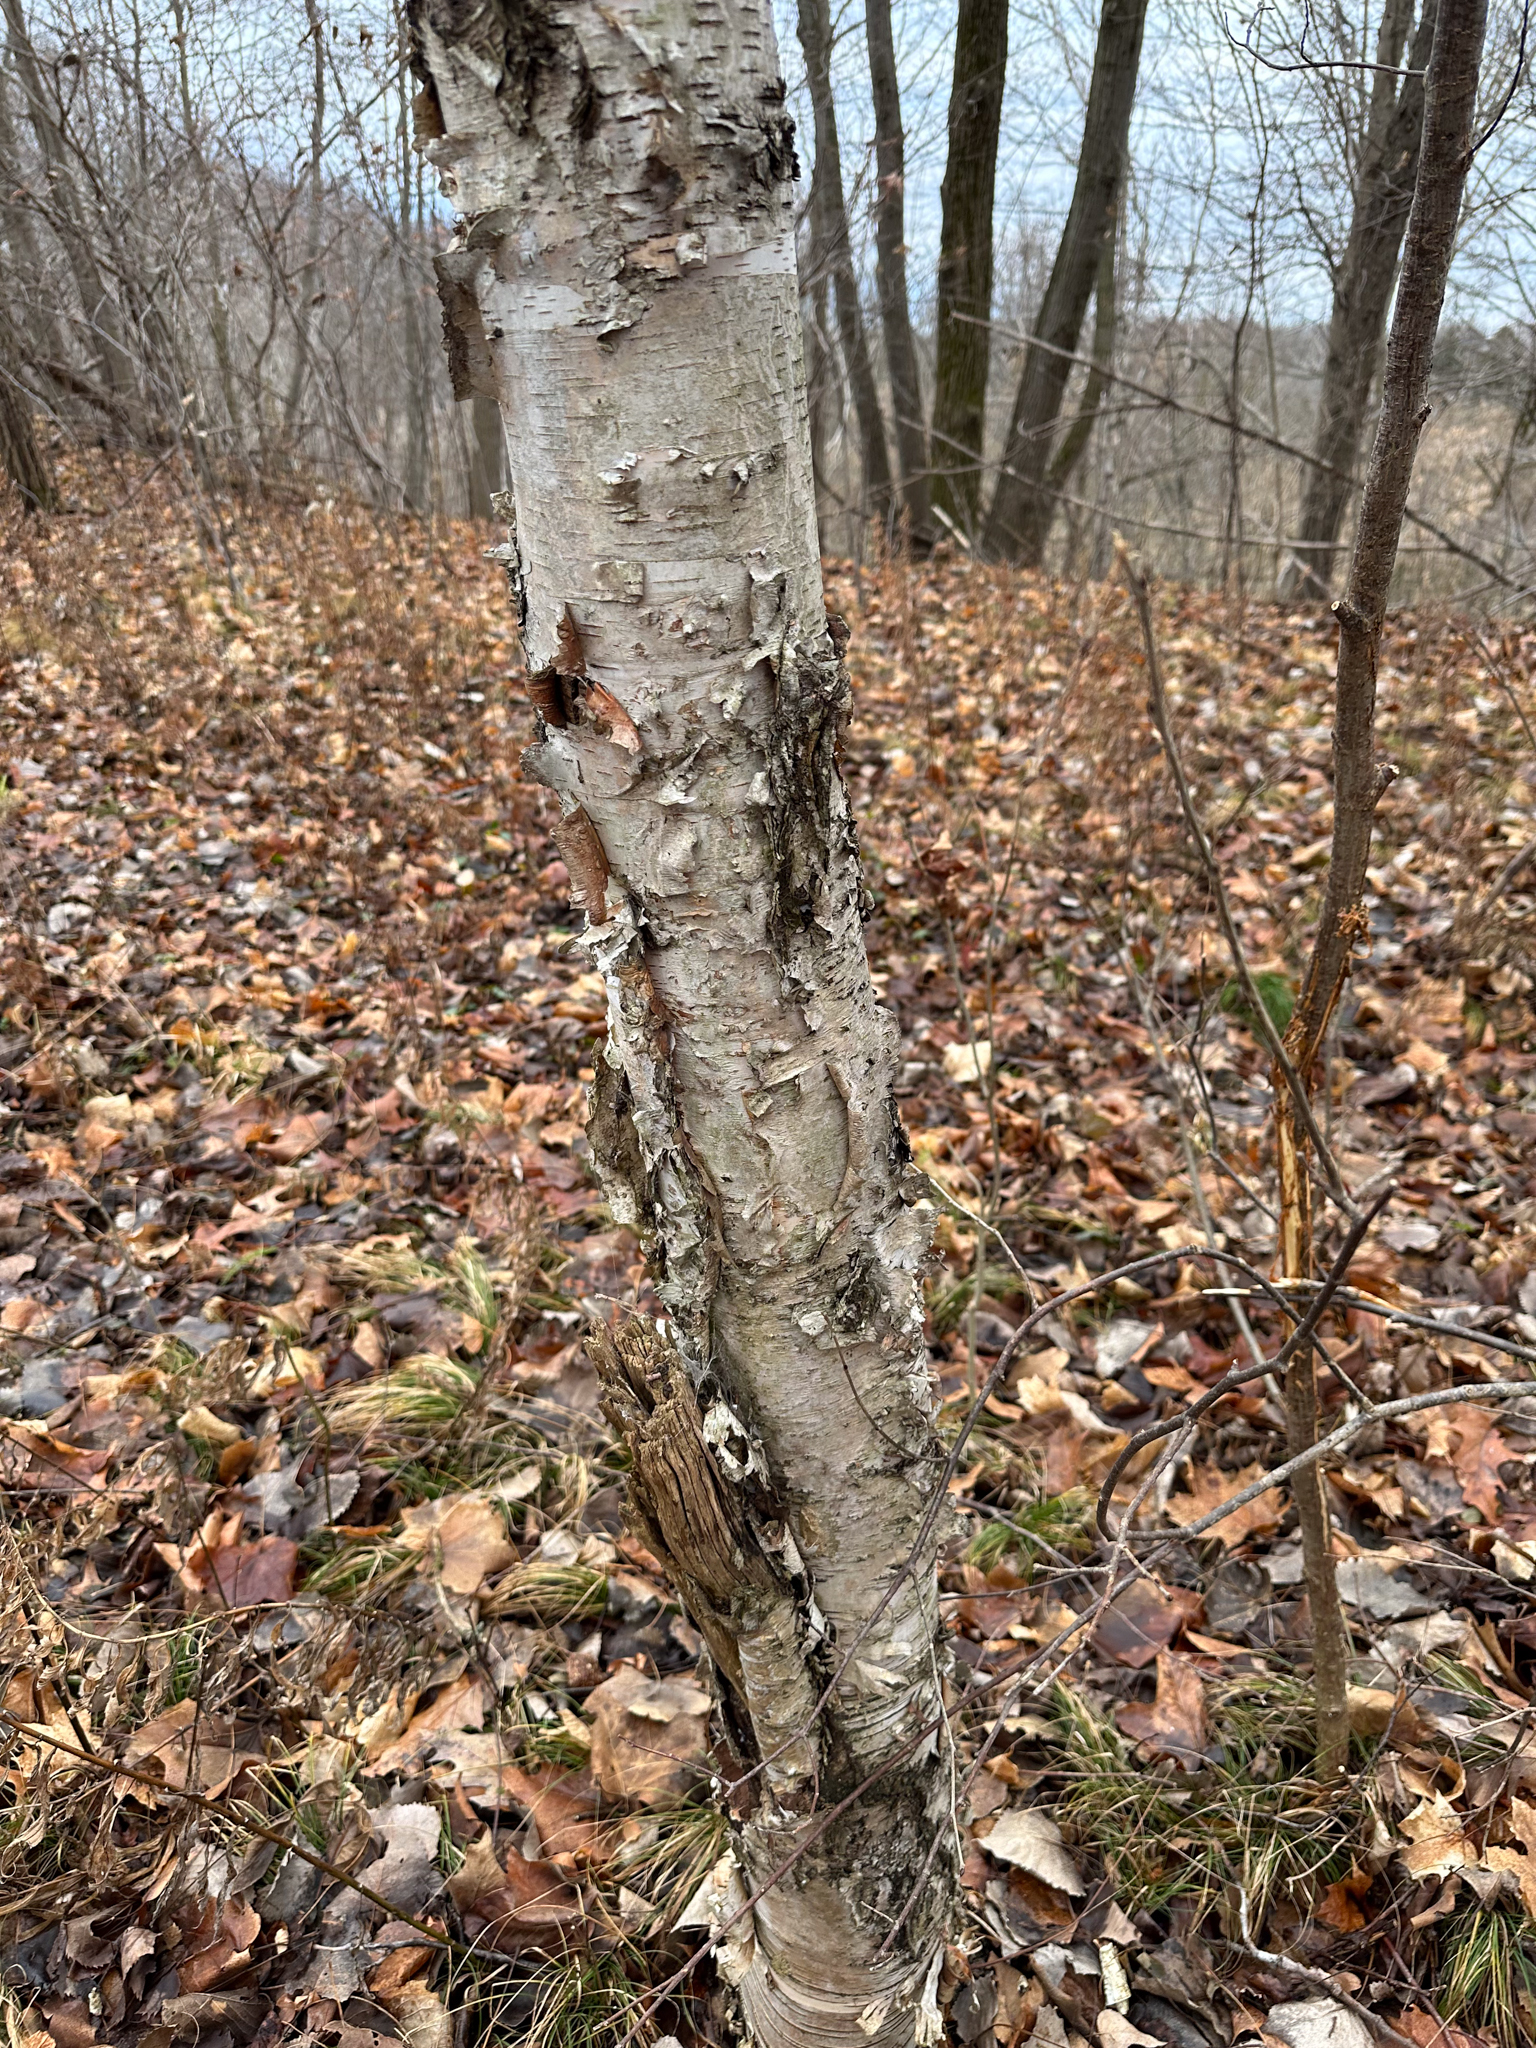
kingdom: Plantae
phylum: Tracheophyta
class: Magnoliopsida
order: Fagales
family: Betulaceae
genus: Betula
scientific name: Betula papyrifera
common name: Paper birch
